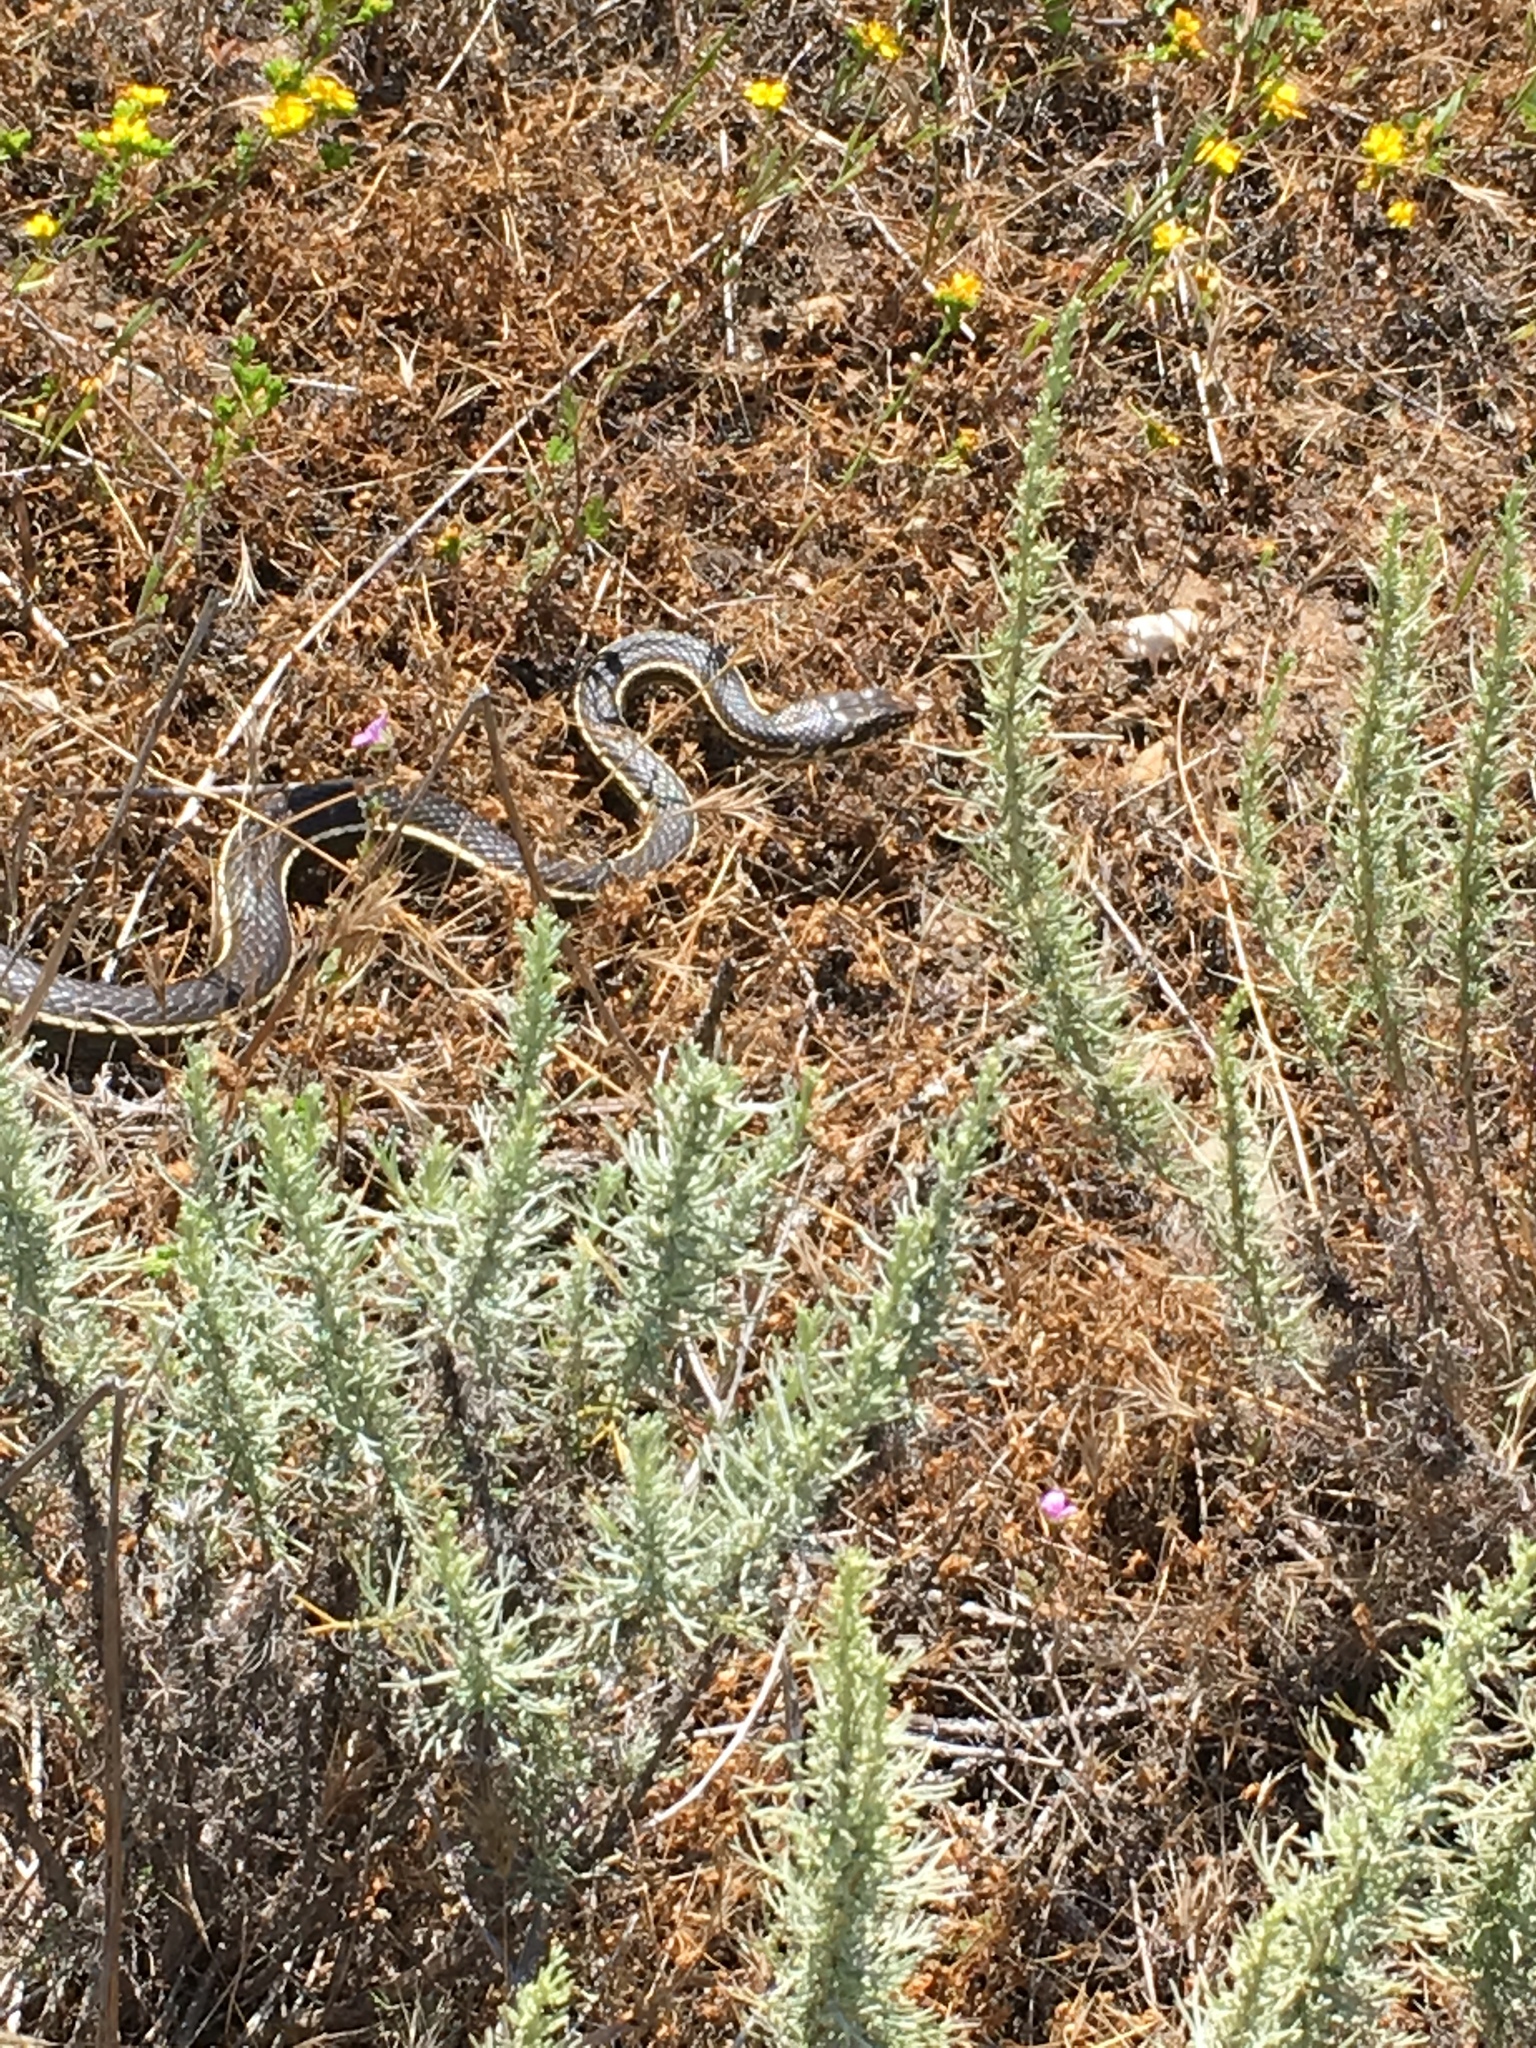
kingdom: Animalia
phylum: Chordata
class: Squamata
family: Colubridae
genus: Masticophis
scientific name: Masticophis lateralis
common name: Striped racer
